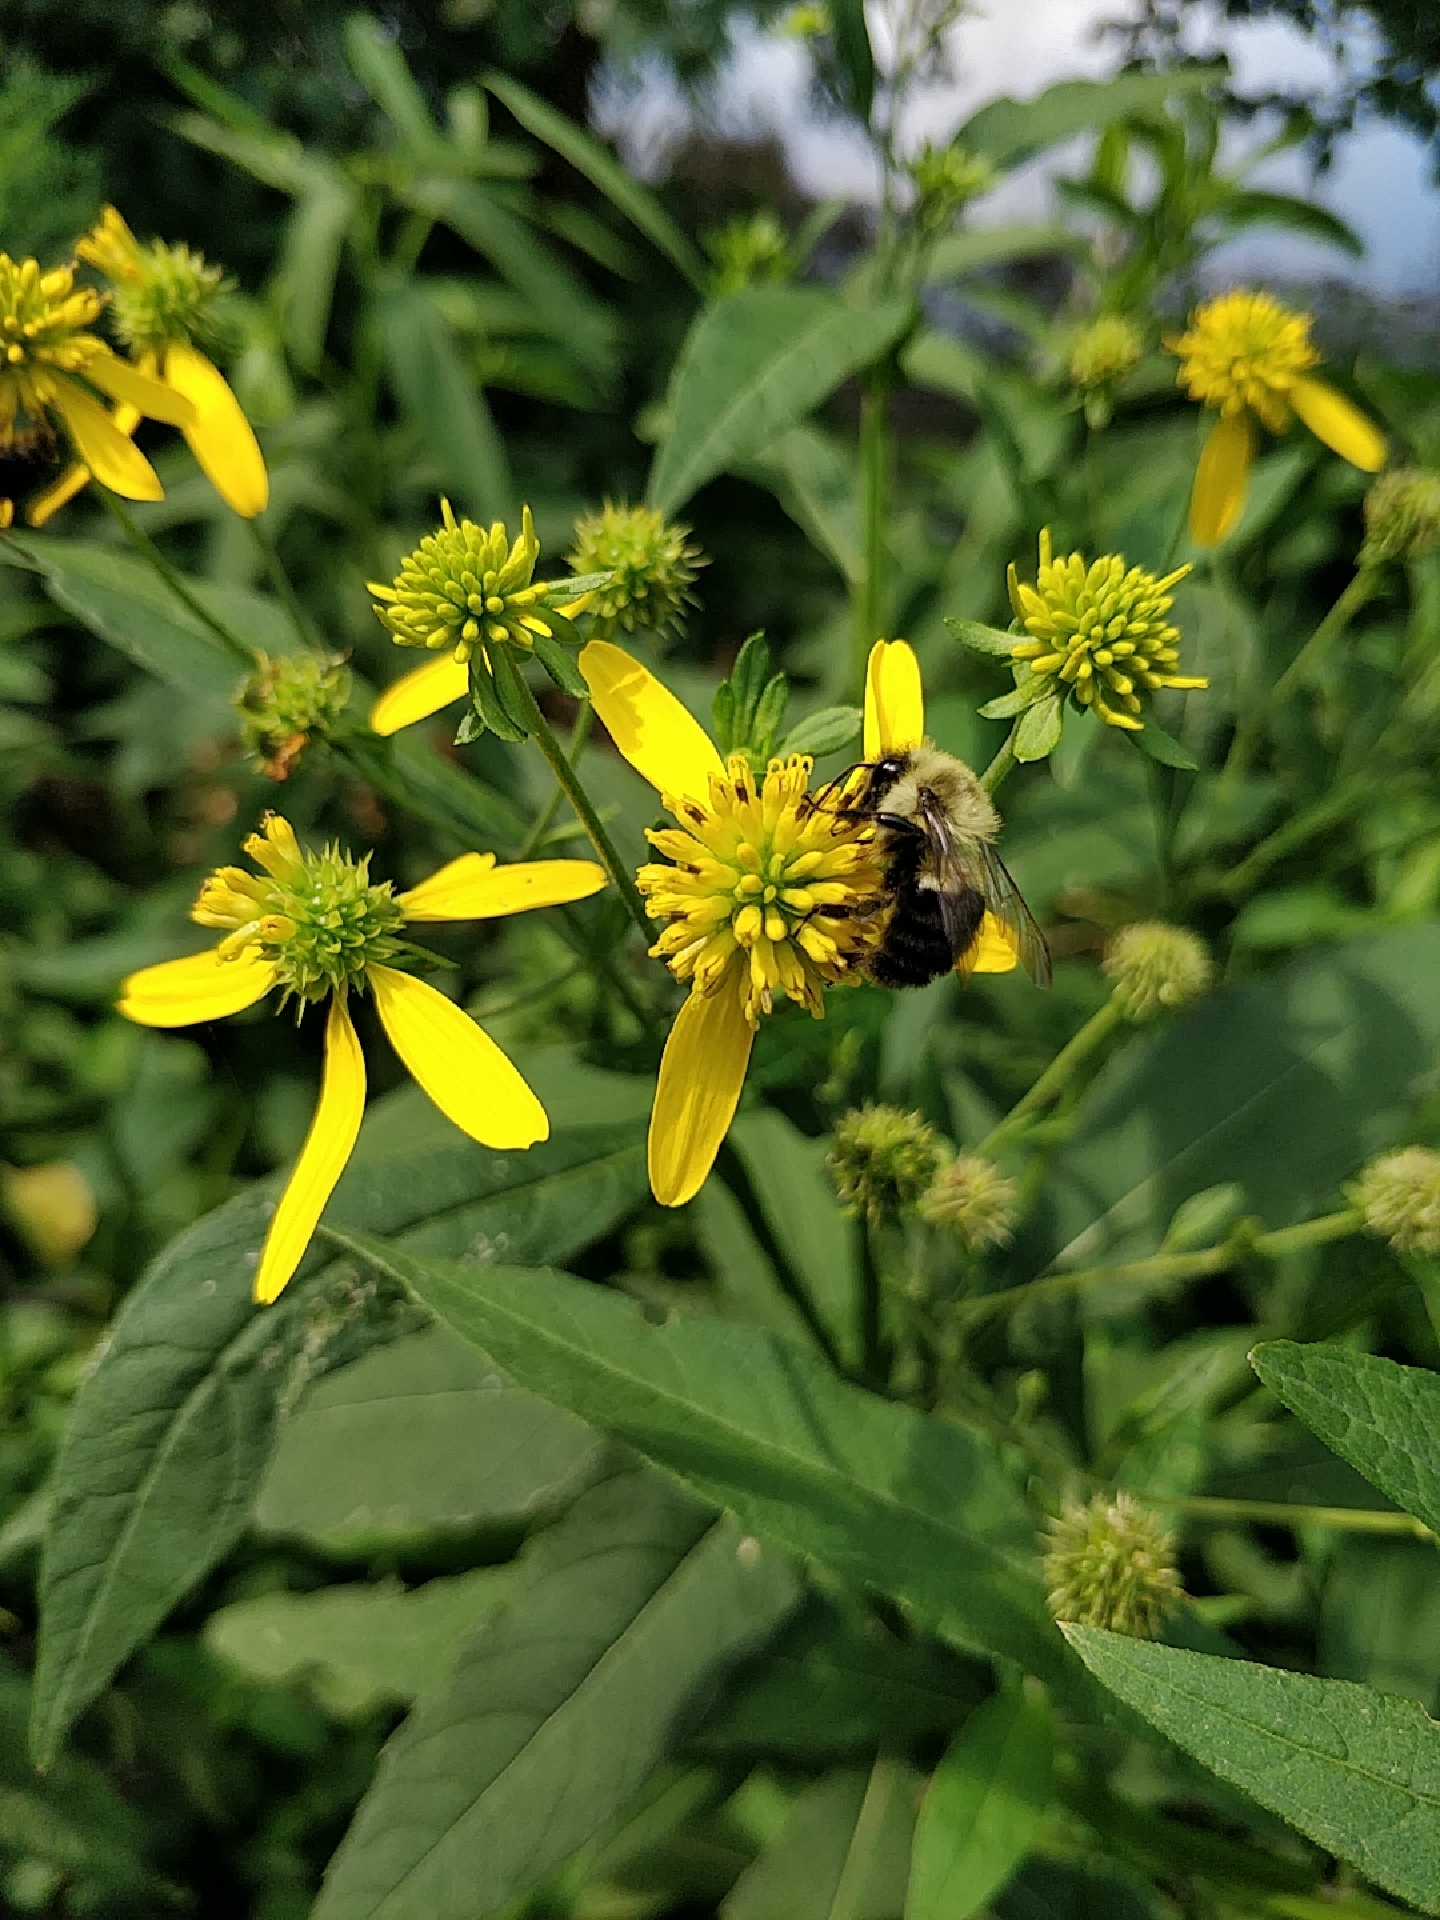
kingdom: Plantae
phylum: Tracheophyta
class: Magnoliopsida
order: Asterales
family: Asteraceae
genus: Verbesina
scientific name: Verbesina alternifolia
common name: Wingstem
